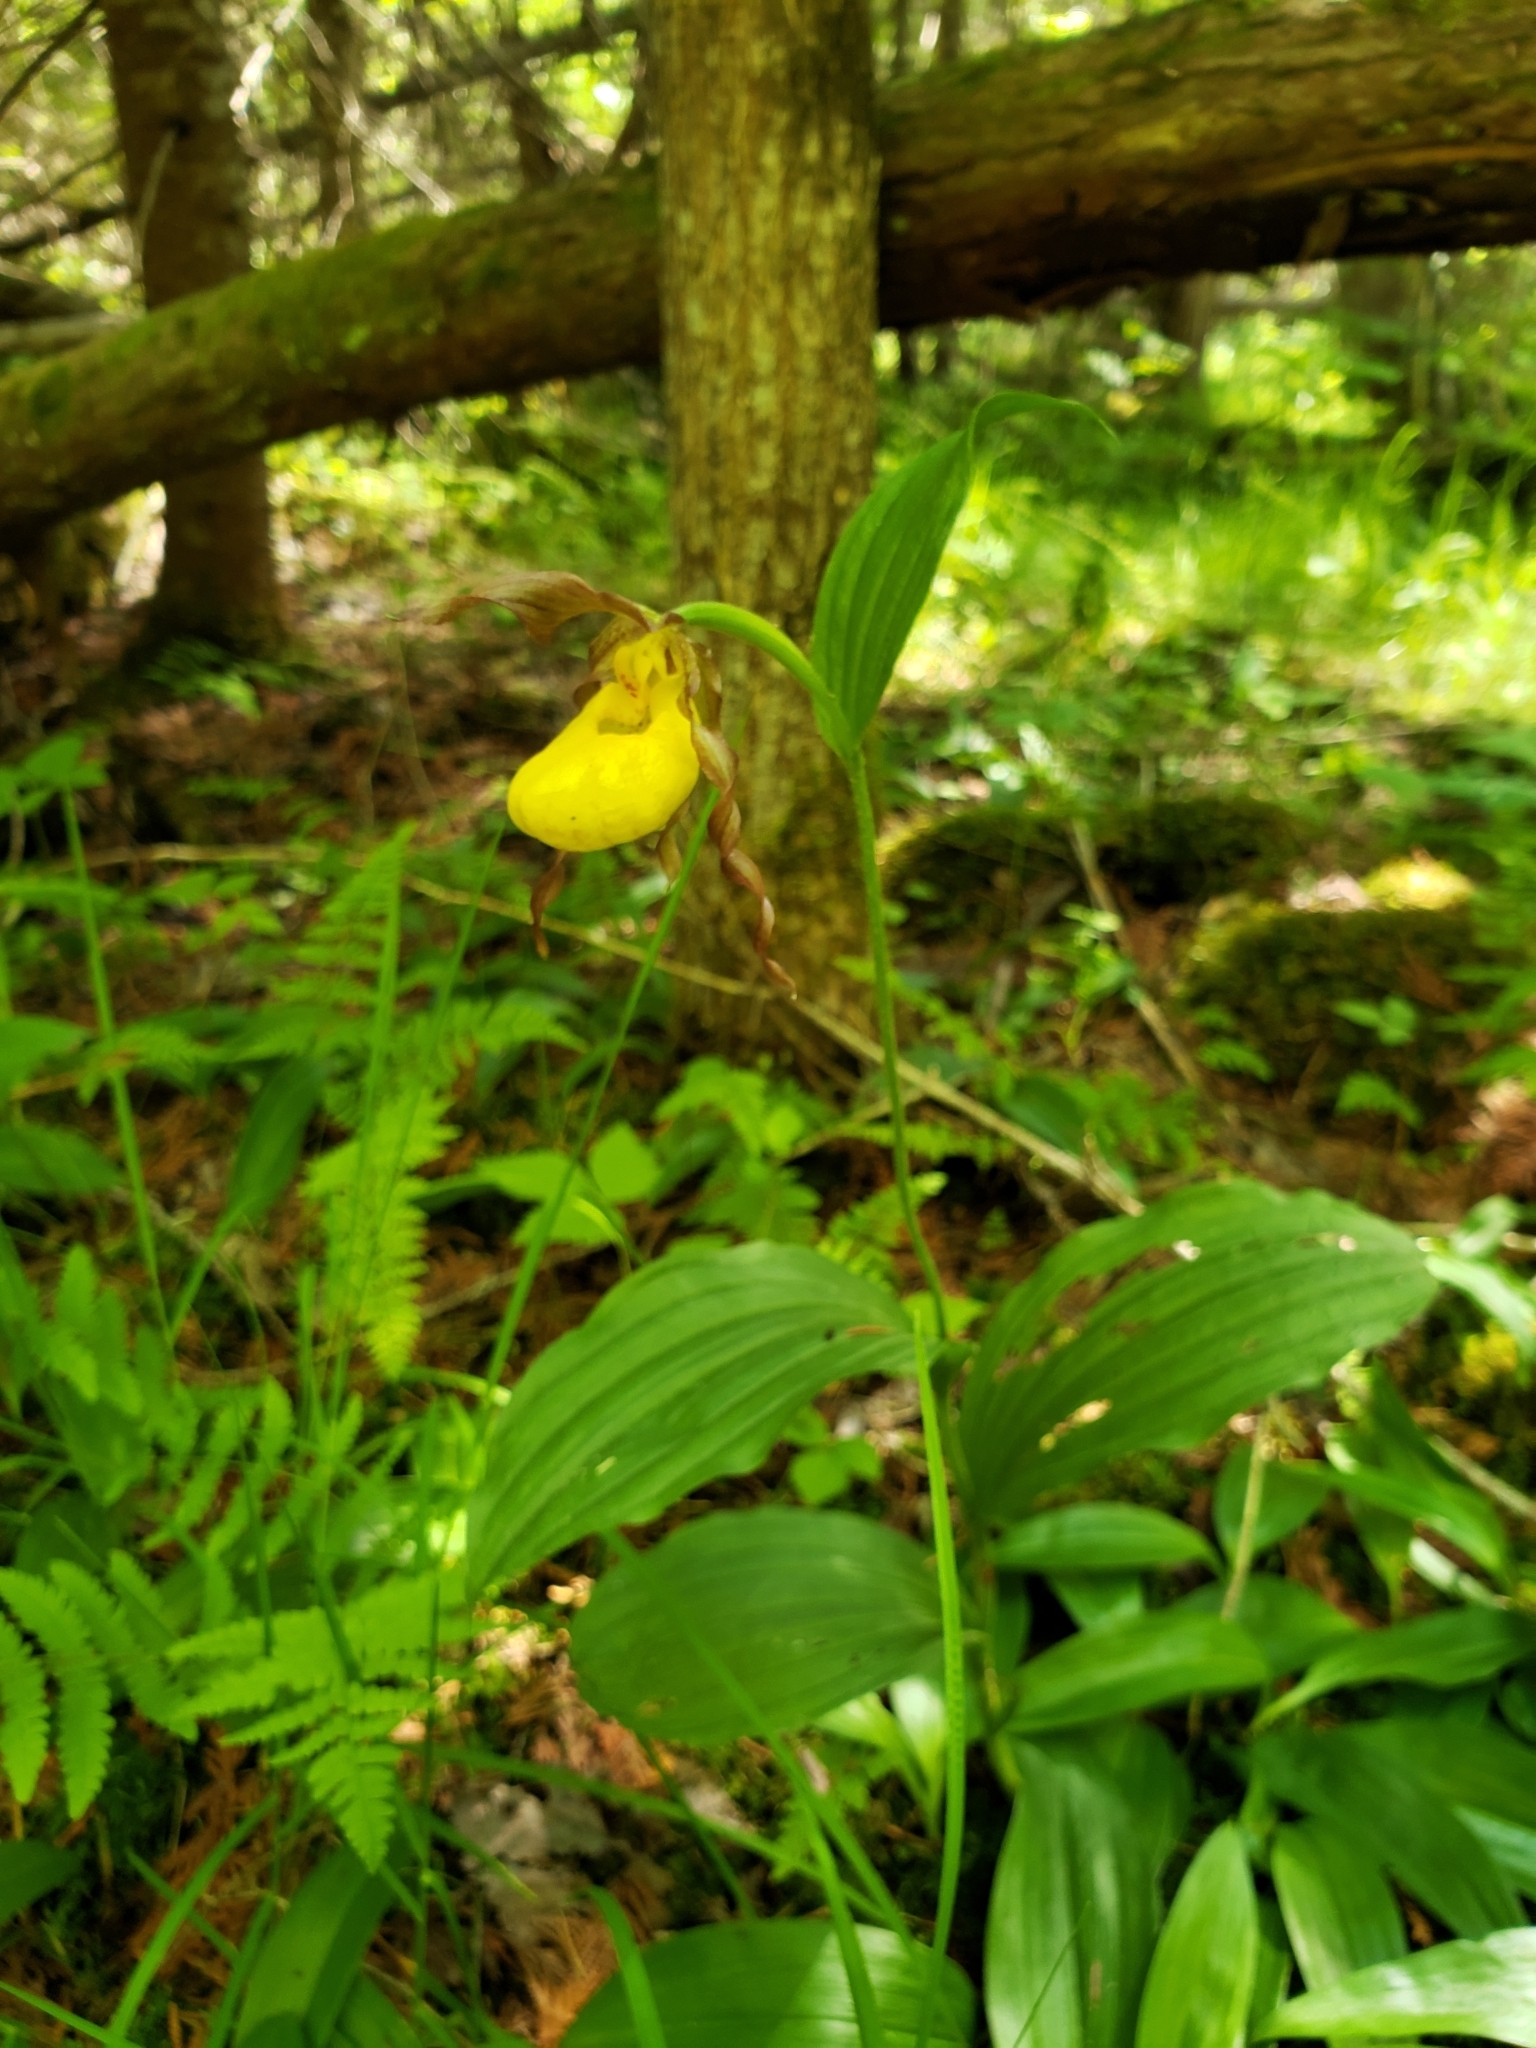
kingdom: Plantae
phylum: Tracheophyta
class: Liliopsida
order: Asparagales
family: Orchidaceae
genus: Cypripedium
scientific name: Cypripedium parviflorum
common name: American yellow lady's-slipper
